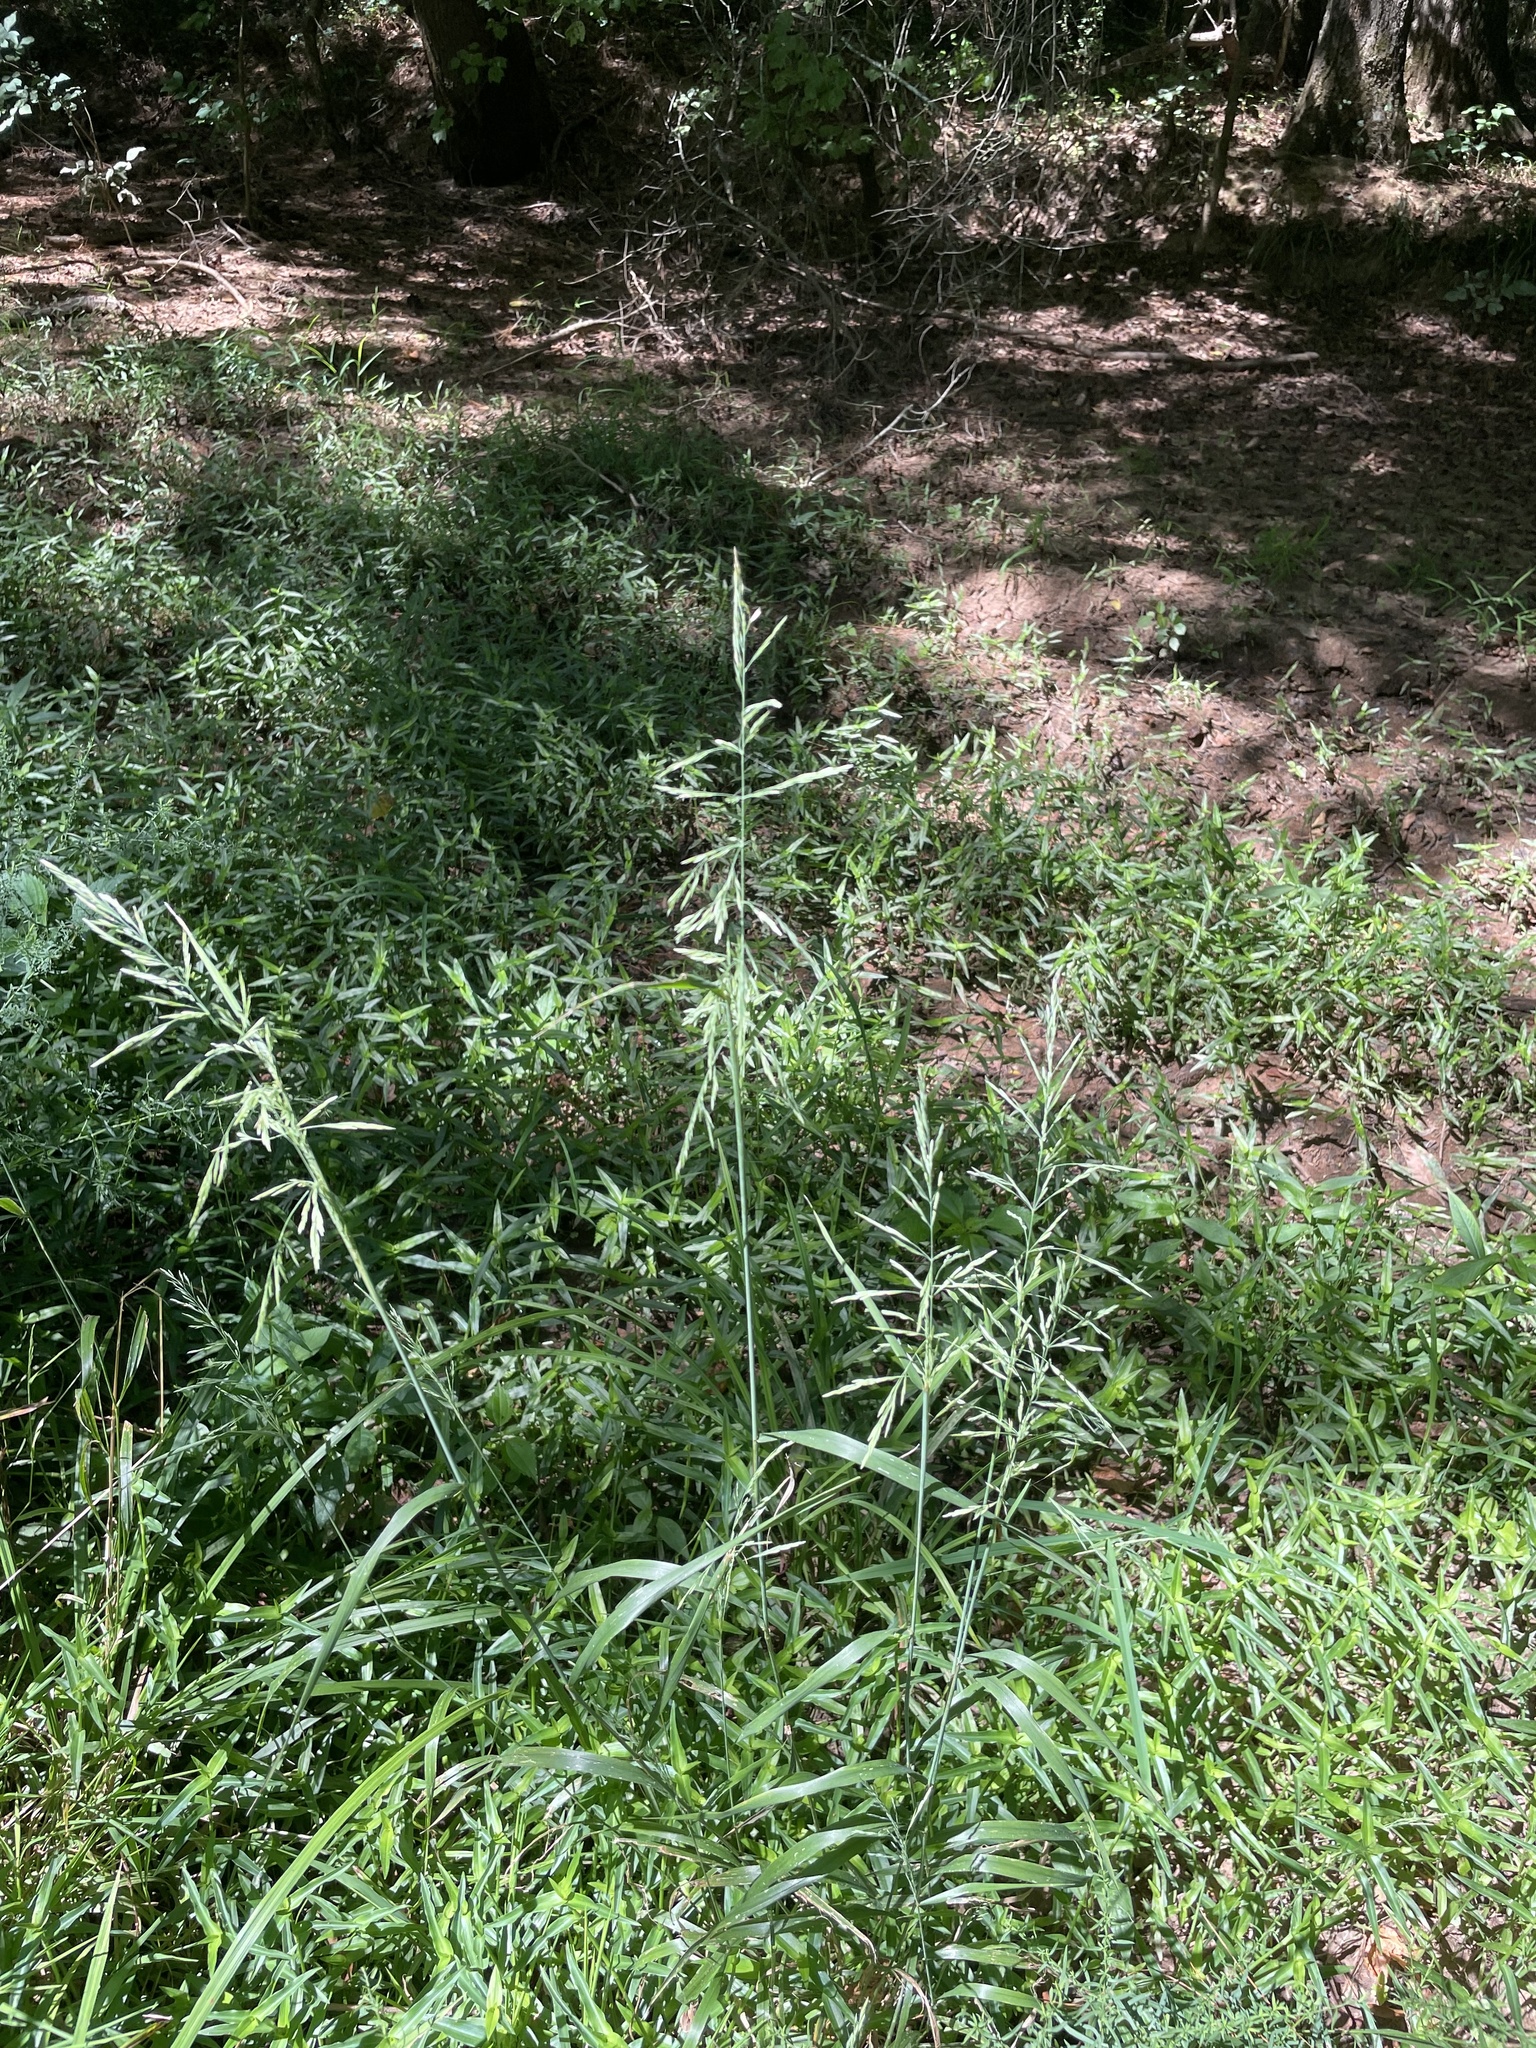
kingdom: Plantae
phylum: Tracheophyta
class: Liliopsida
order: Poales
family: Poaceae
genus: Cinna
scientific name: Cinna arundinacea
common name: Stout woodreed
